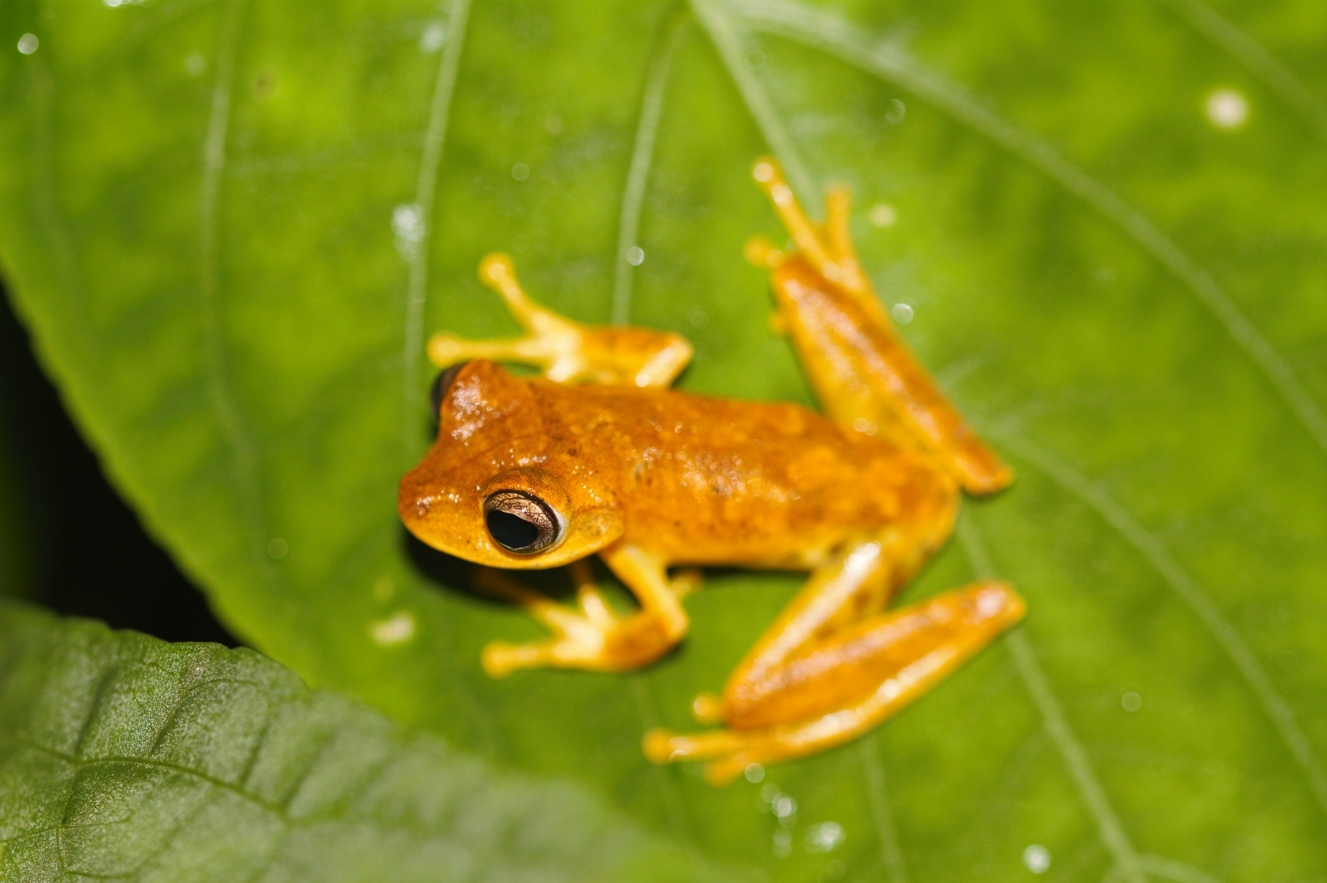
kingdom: Animalia
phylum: Chordata
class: Amphibia
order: Anura
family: Hylidae
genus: Boana
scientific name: Boana courtoisae
